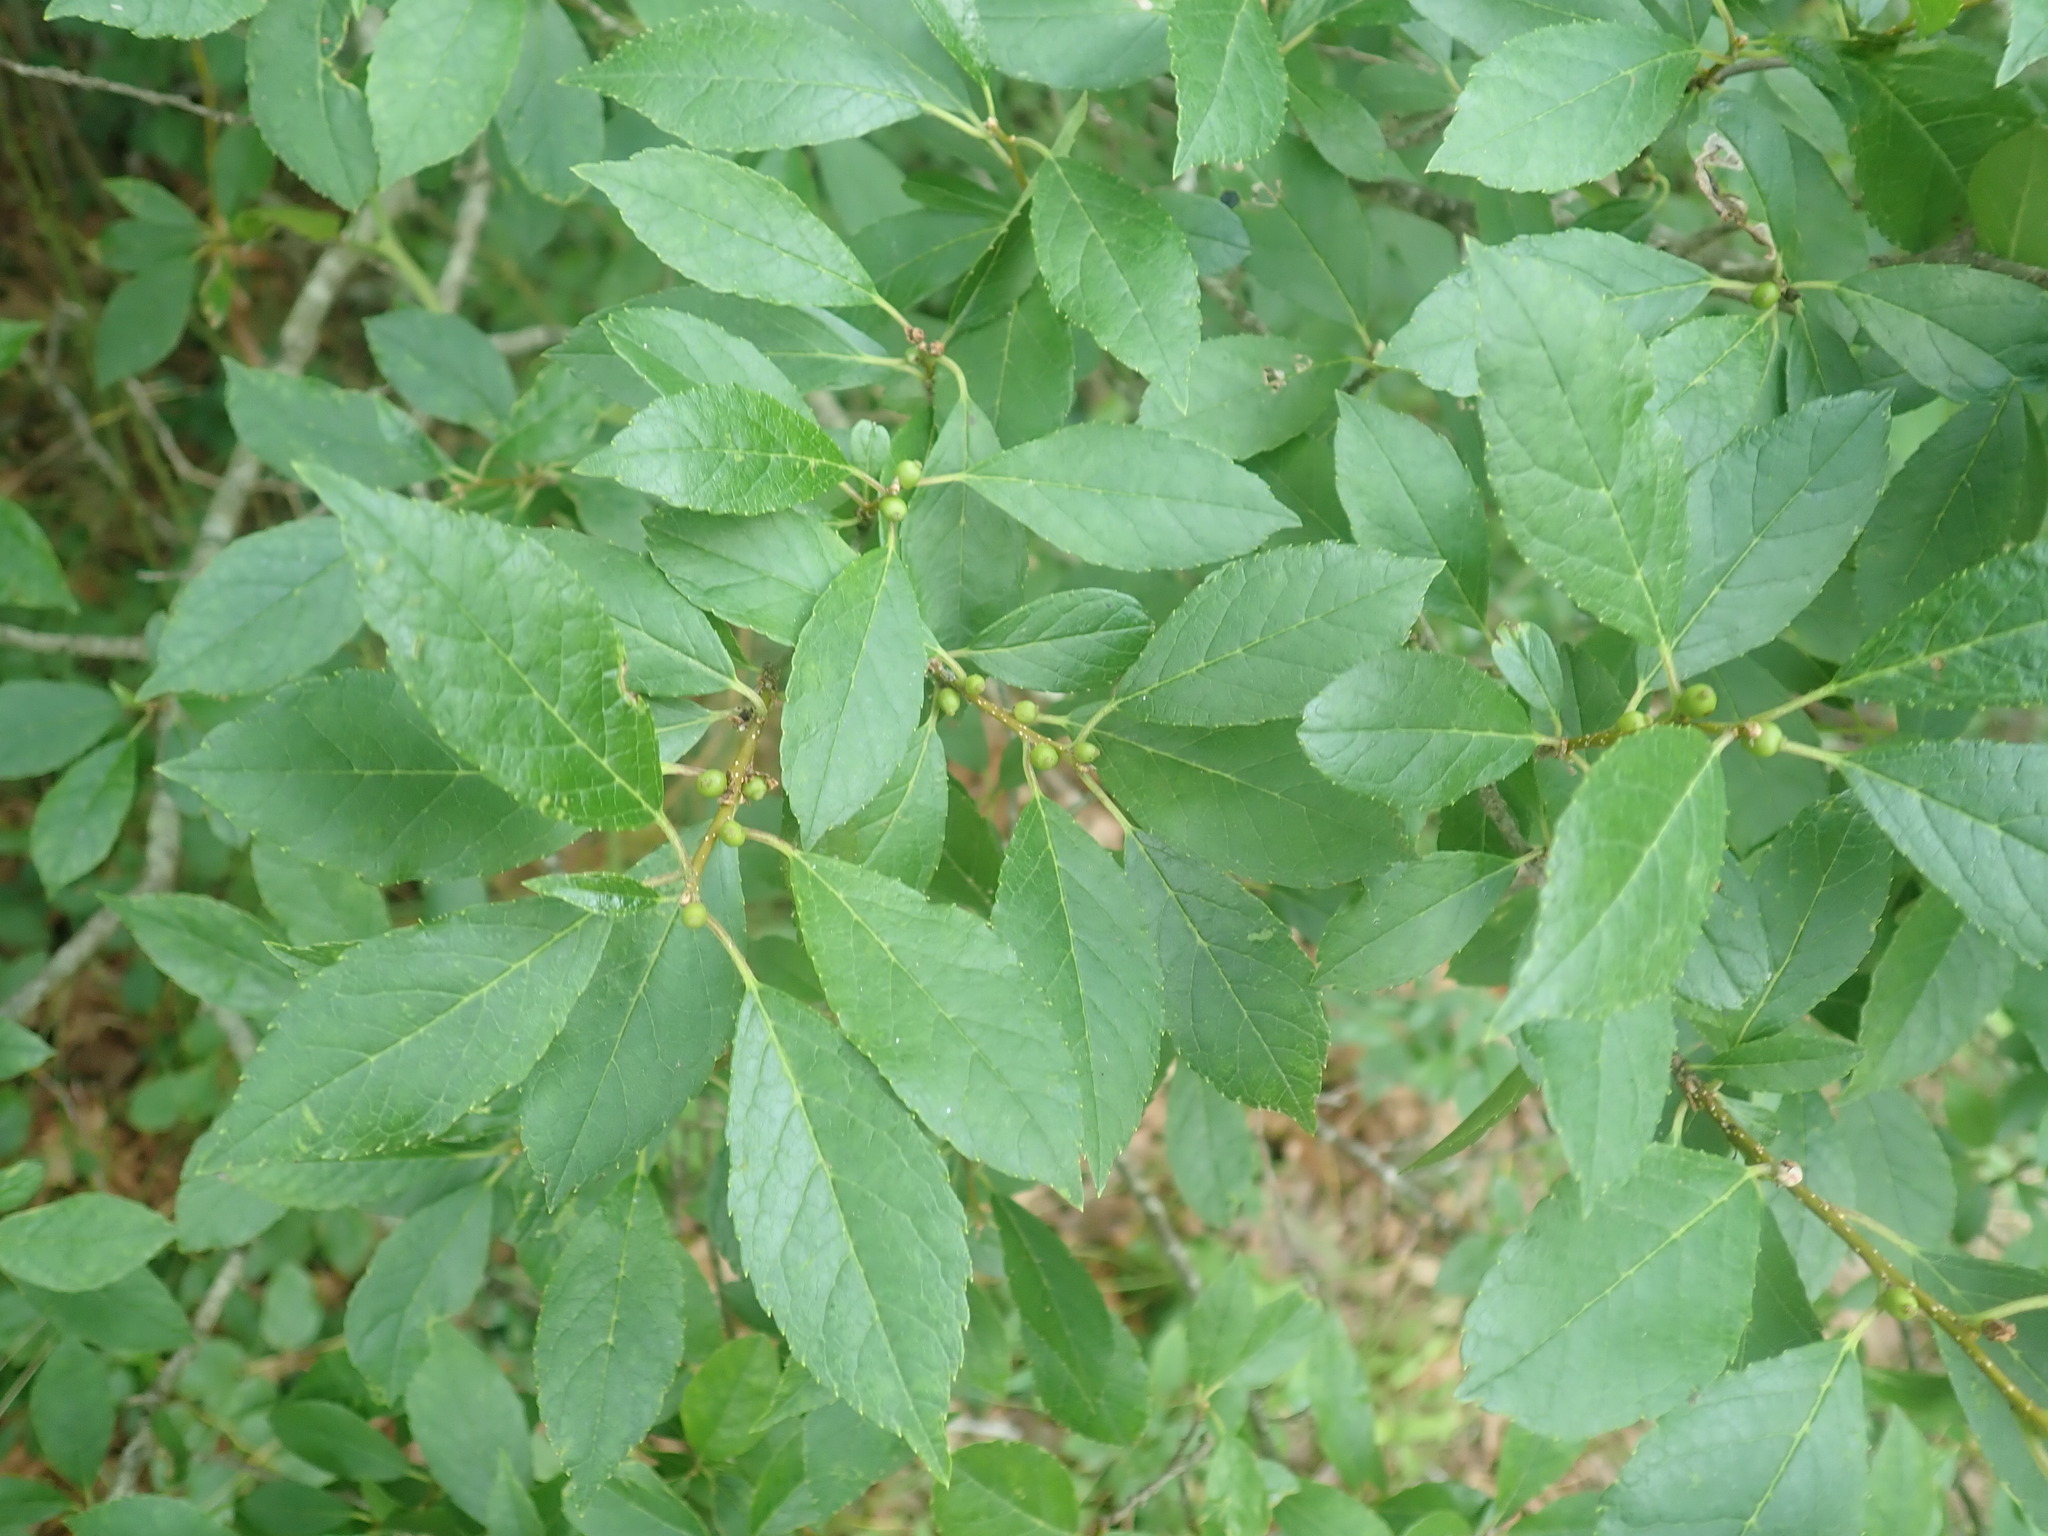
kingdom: Plantae
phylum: Tracheophyta
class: Magnoliopsida
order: Aquifoliales
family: Aquifoliaceae
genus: Ilex
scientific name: Ilex verticillata
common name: Virginia winterberry
